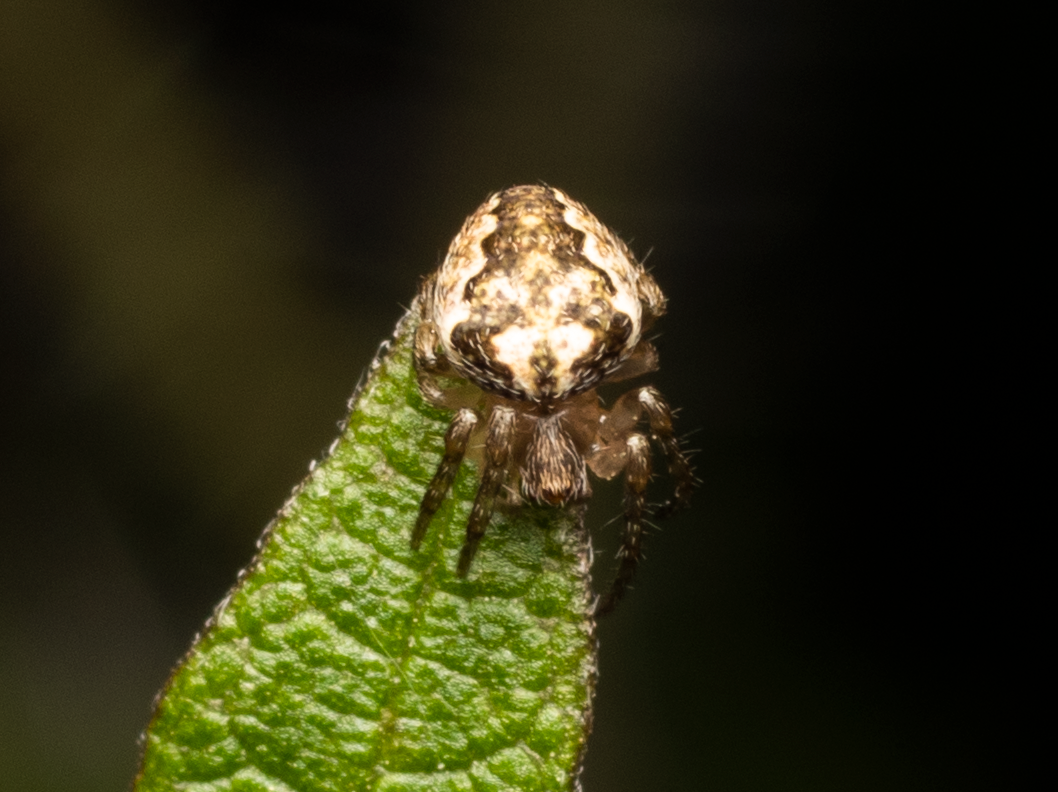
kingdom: Animalia
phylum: Arthropoda
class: Arachnida
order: Araneae
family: Araneidae
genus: Eriophora
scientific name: Eriophora pustulosa
